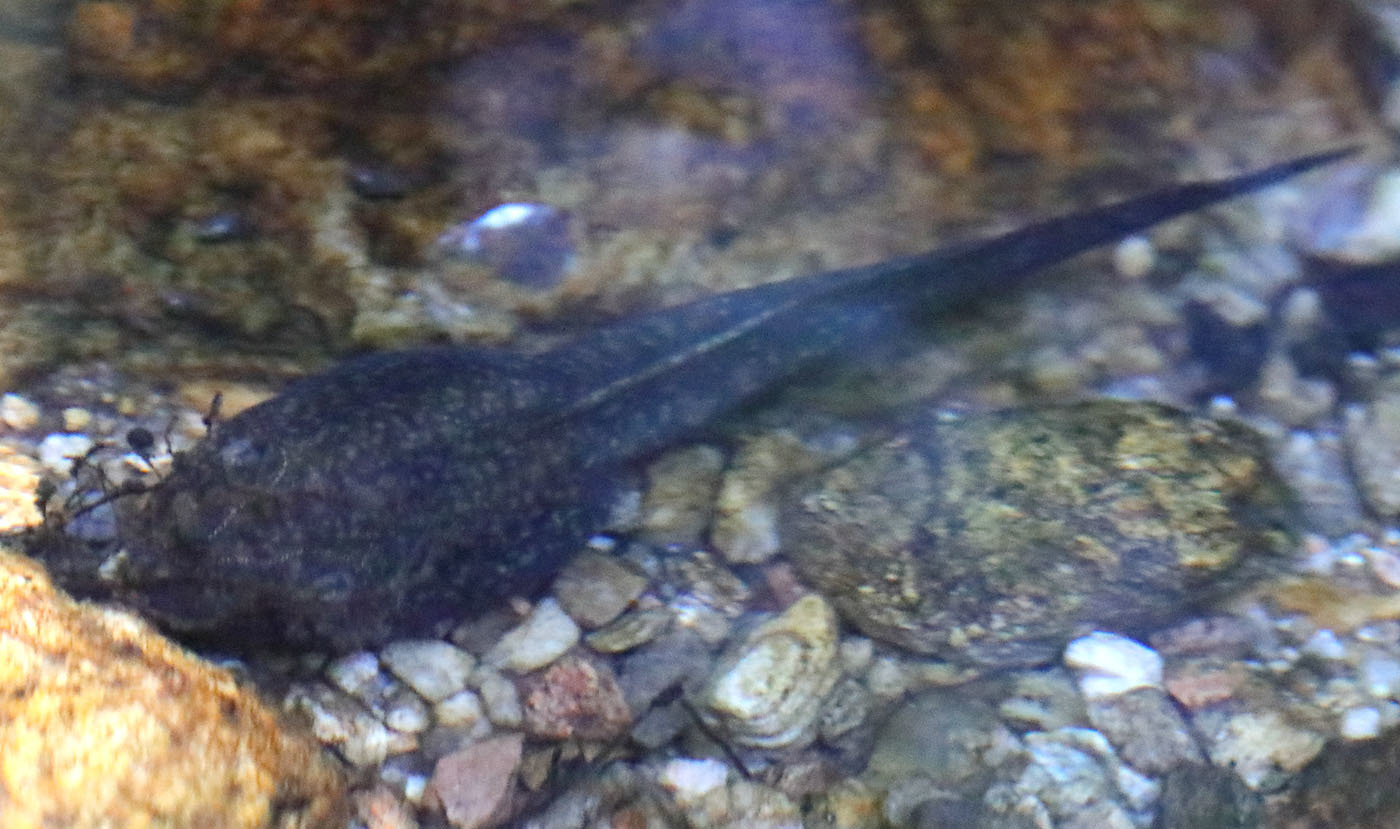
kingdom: Animalia
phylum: Chordata
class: Amphibia
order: Anura
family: Ranidae
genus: Rana
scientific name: Rana draytonii
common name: California red-legged frog
